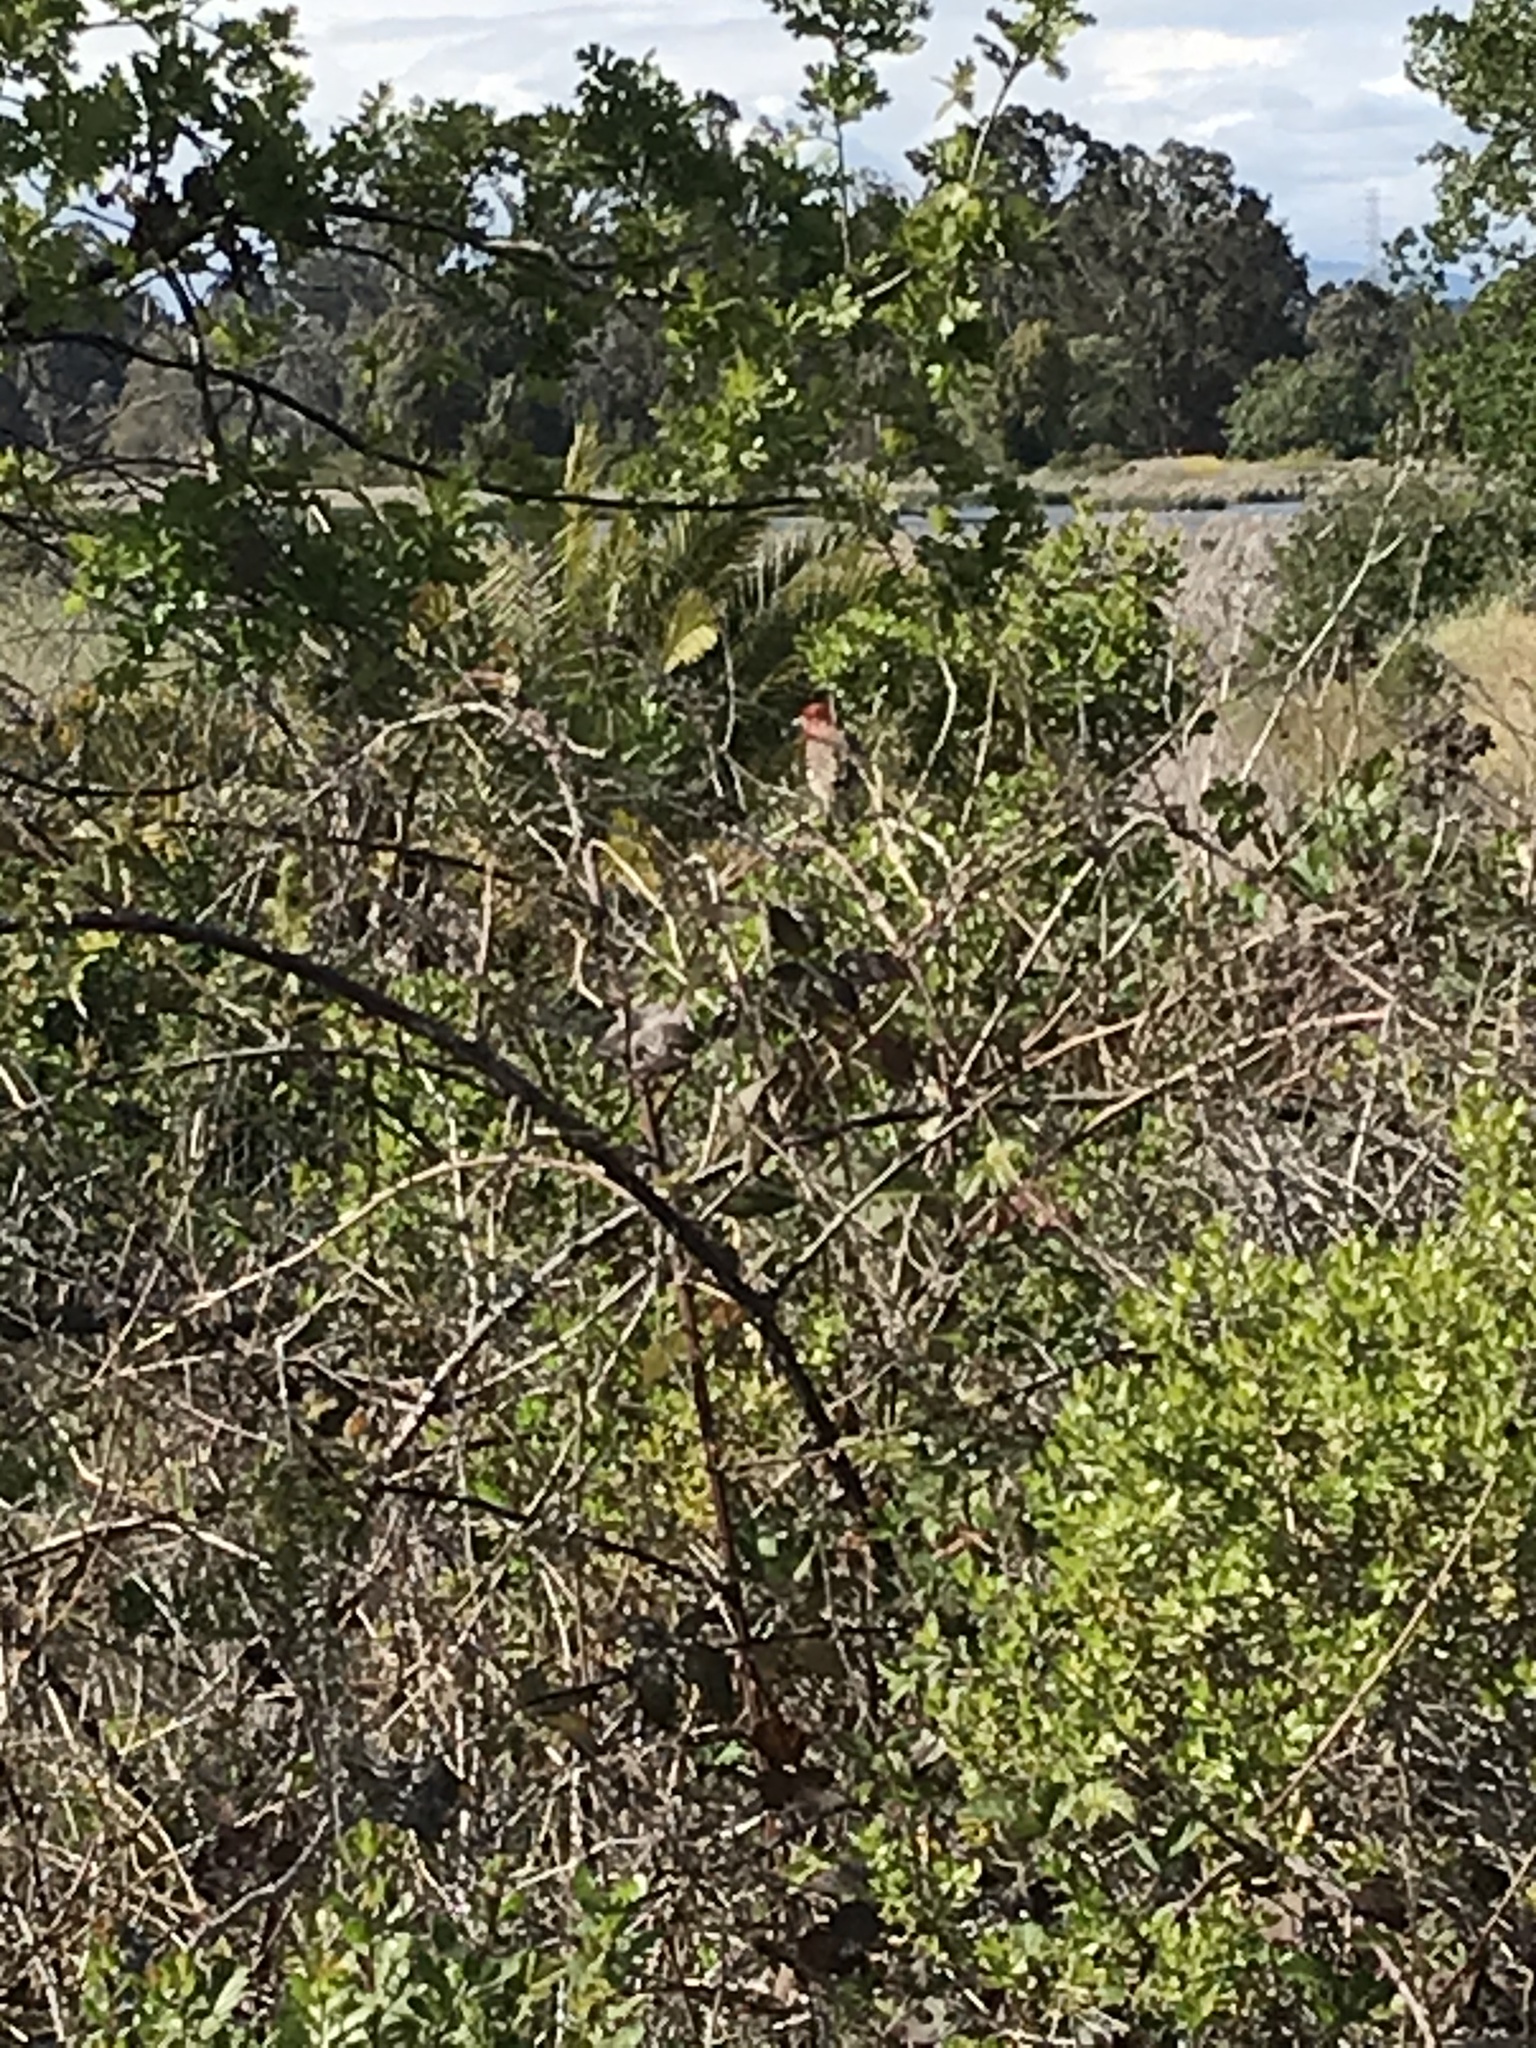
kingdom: Animalia
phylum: Chordata
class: Aves
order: Passeriformes
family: Fringillidae
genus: Haemorhous
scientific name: Haemorhous mexicanus
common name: House finch
